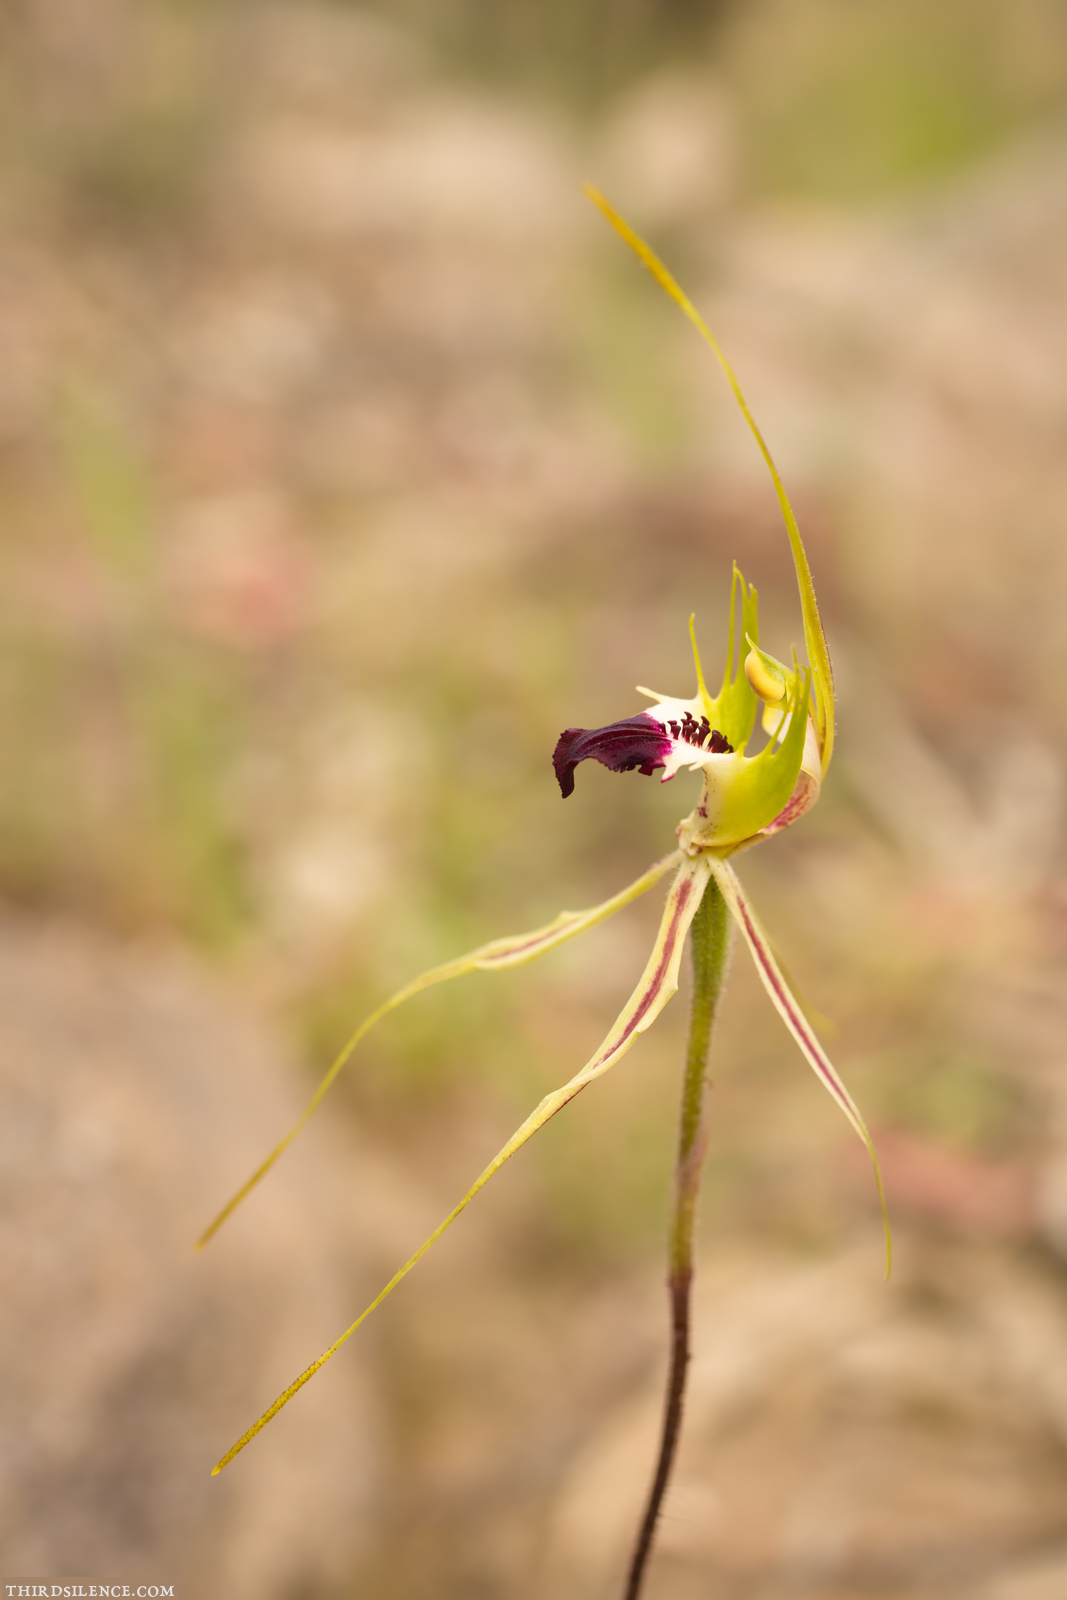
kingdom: Plantae
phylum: Tracheophyta
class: Liliopsida
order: Asparagales
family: Orchidaceae
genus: Caladenia
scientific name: Caladenia atrovespa
